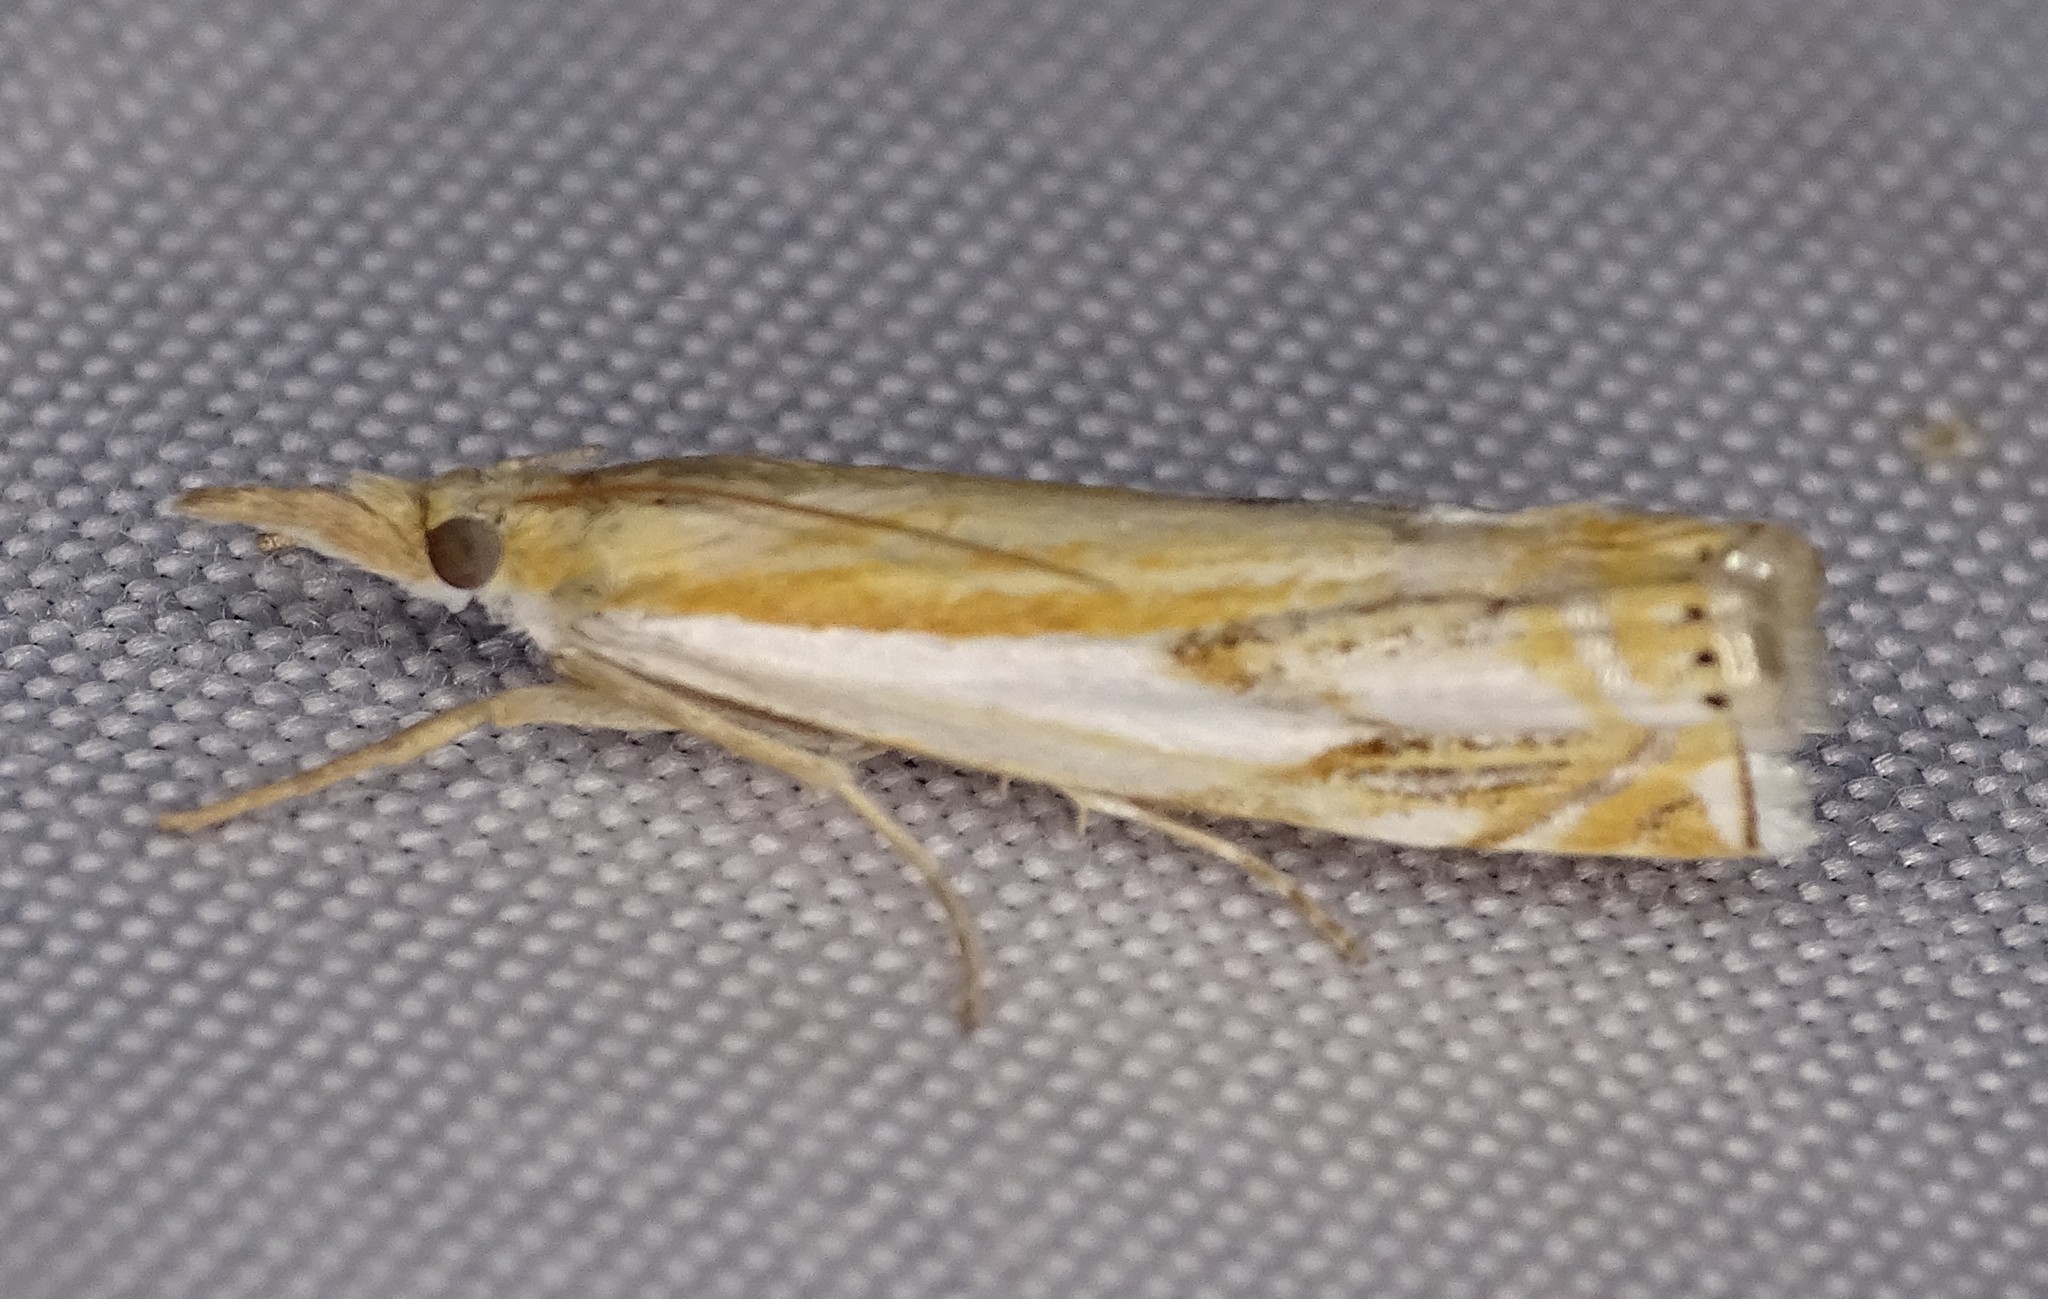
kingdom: Animalia
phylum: Arthropoda
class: Insecta
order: Lepidoptera
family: Crambidae
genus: Crambus
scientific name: Crambus agitatellus
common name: Double-banded grass-veneer
